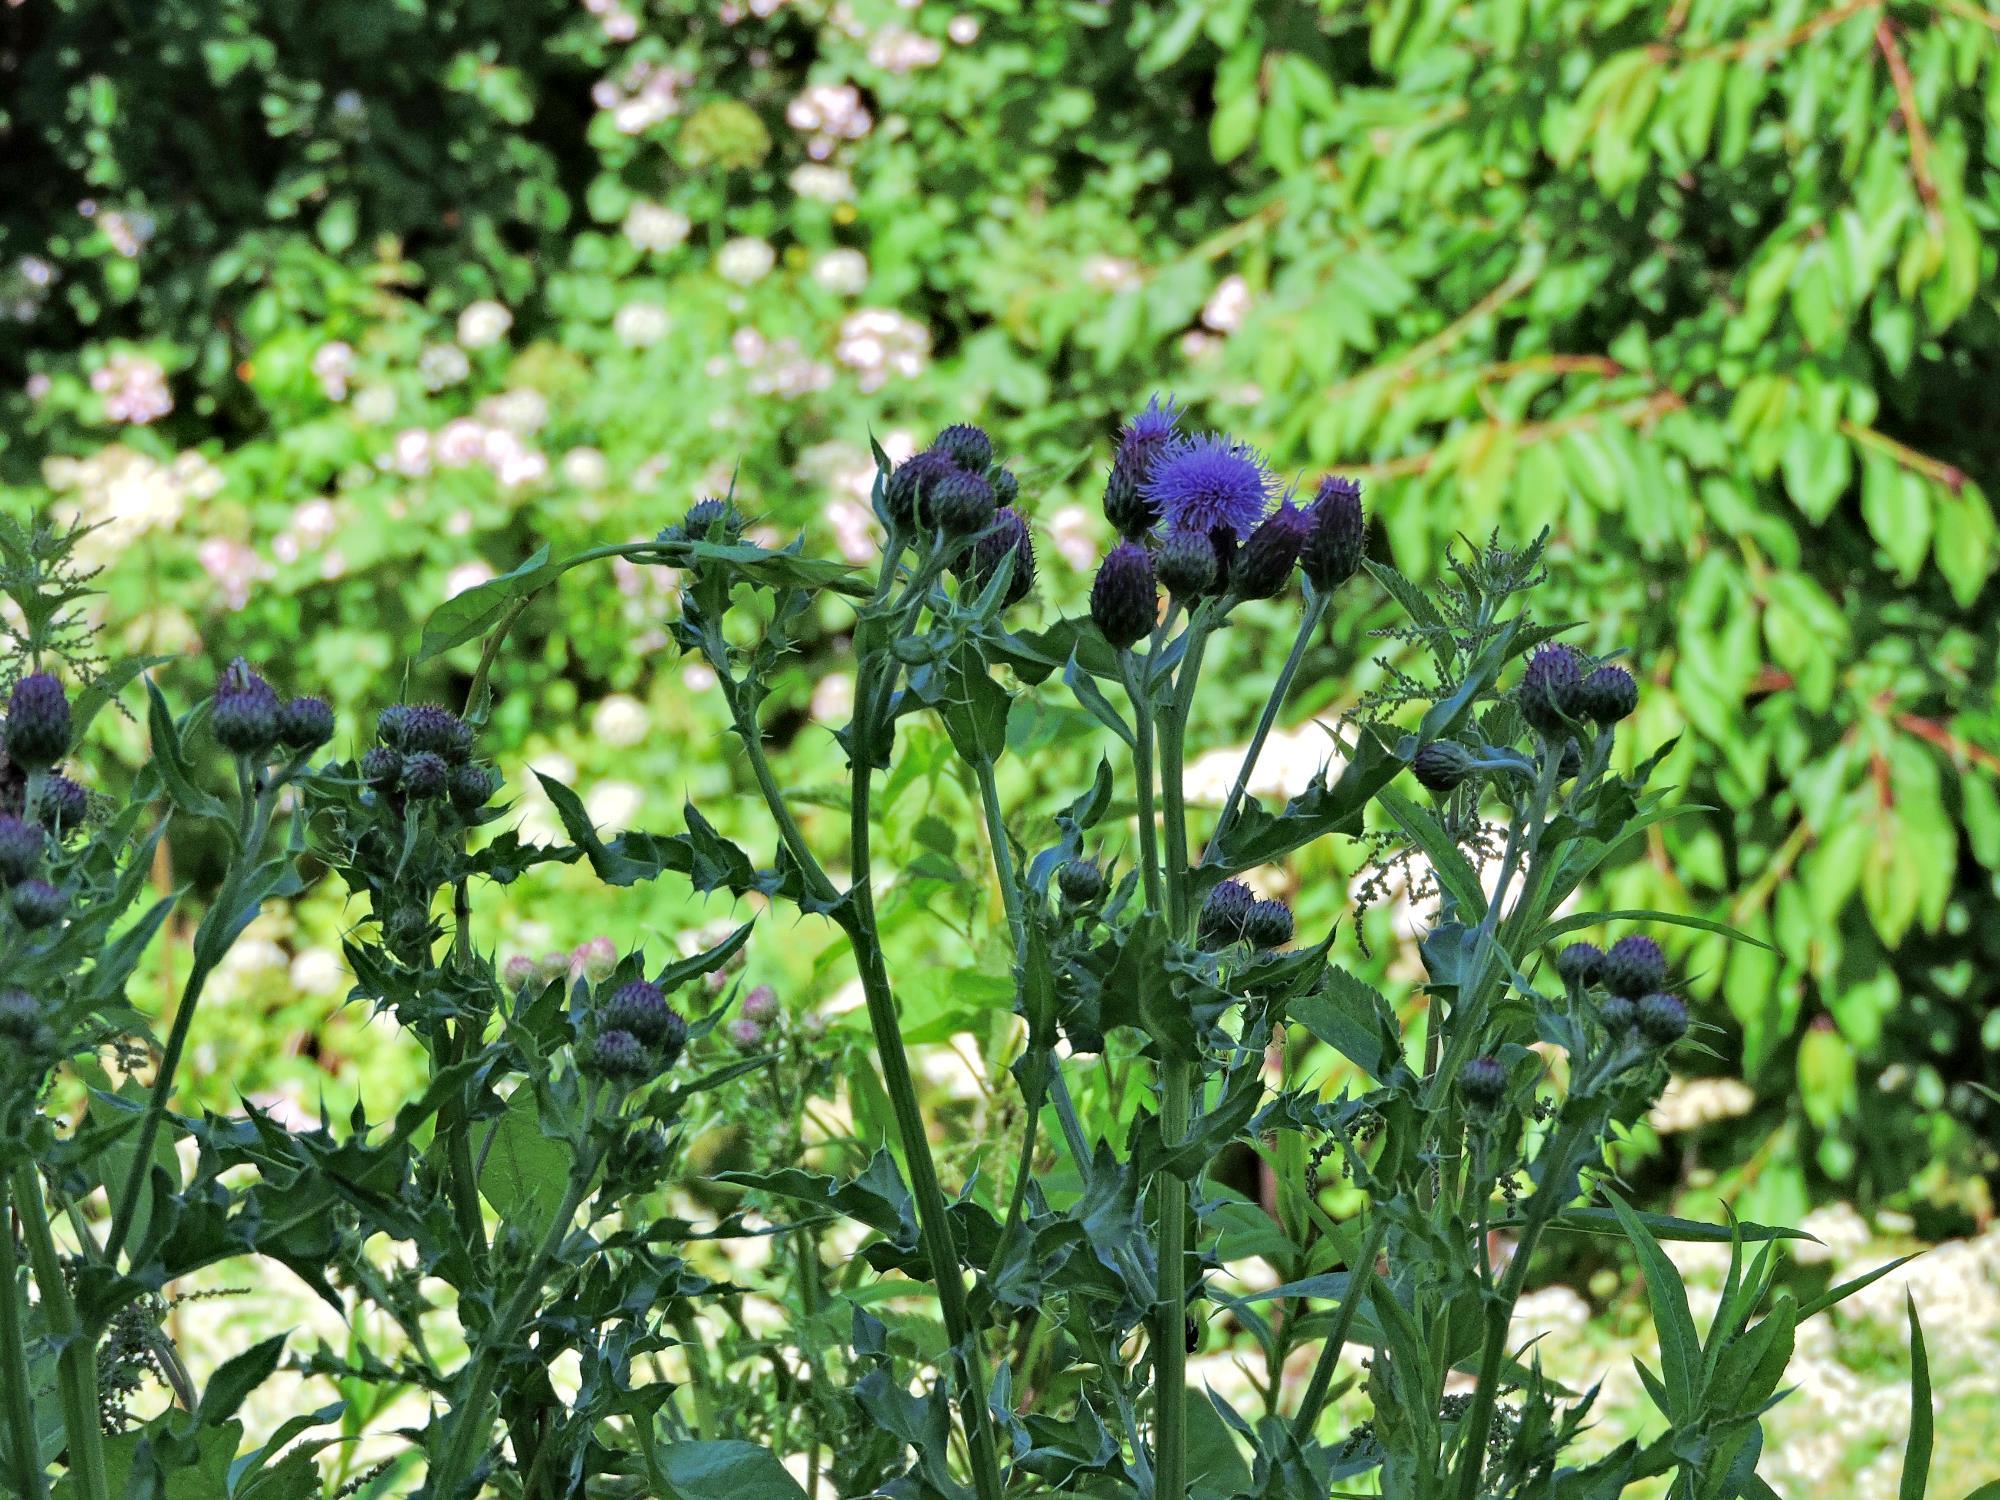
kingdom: Plantae
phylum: Tracheophyta
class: Magnoliopsida
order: Asterales
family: Asteraceae
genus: Cirsium
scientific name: Cirsium arvense
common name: Creeping thistle
